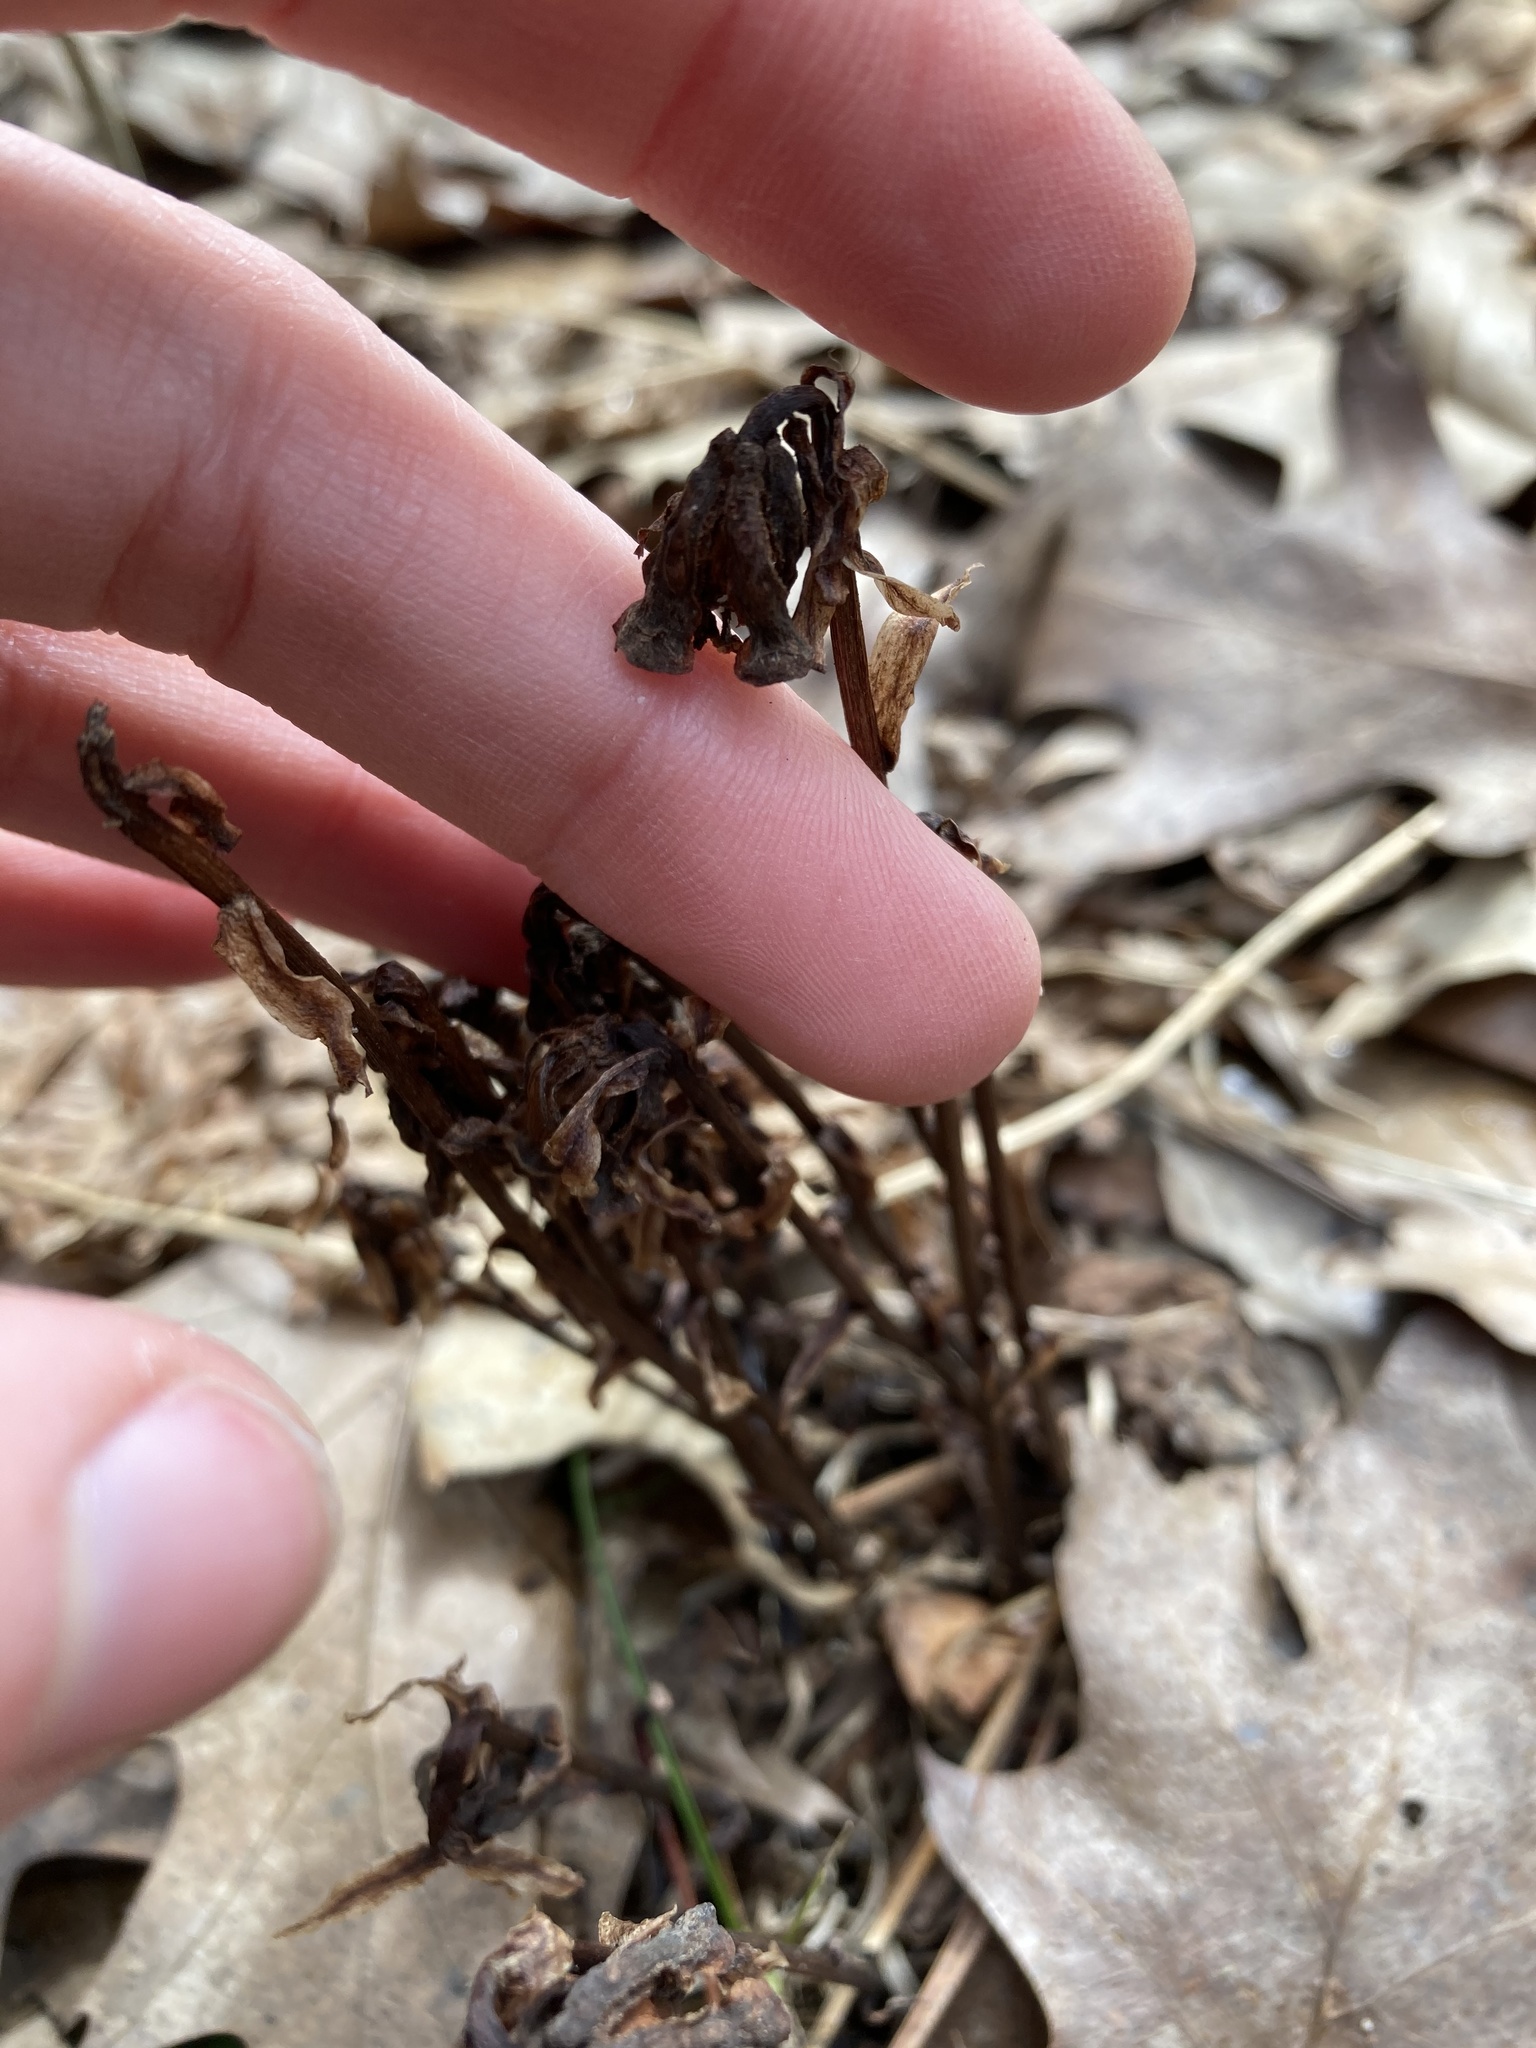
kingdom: Plantae
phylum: Tracheophyta
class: Magnoliopsida
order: Ericales
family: Ericaceae
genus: Monotropa
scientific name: Monotropa uniflora
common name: Convulsion root
